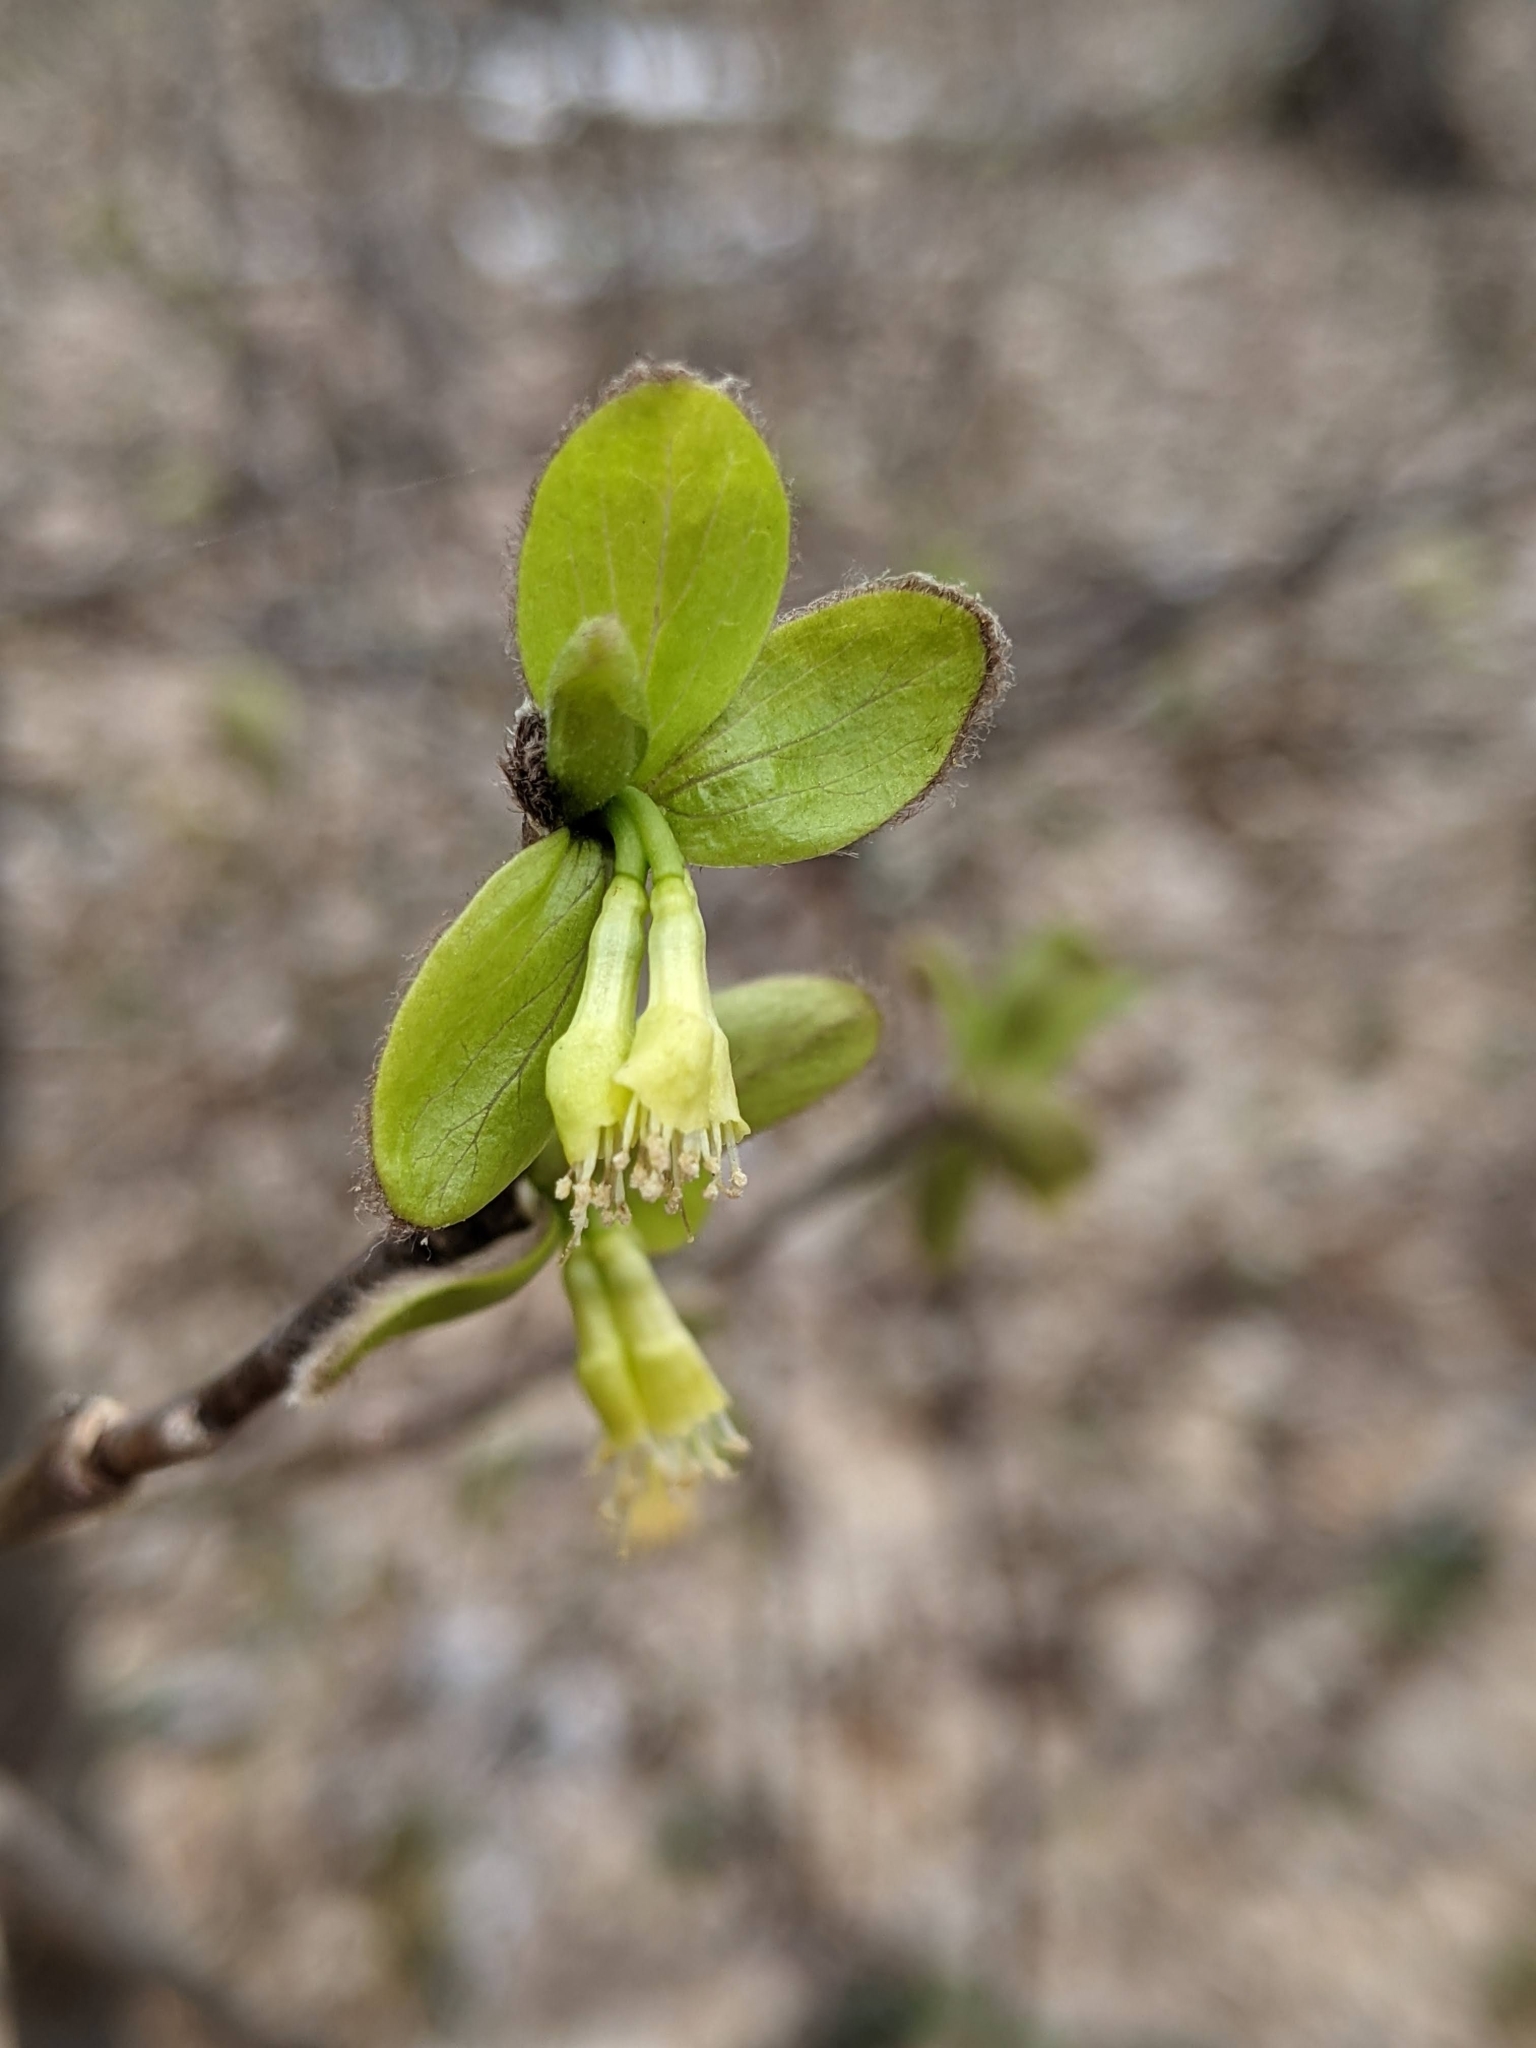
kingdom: Plantae
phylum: Tracheophyta
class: Magnoliopsida
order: Malvales
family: Thymelaeaceae
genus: Dirca
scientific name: Dirca palustris
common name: Leatherwood
